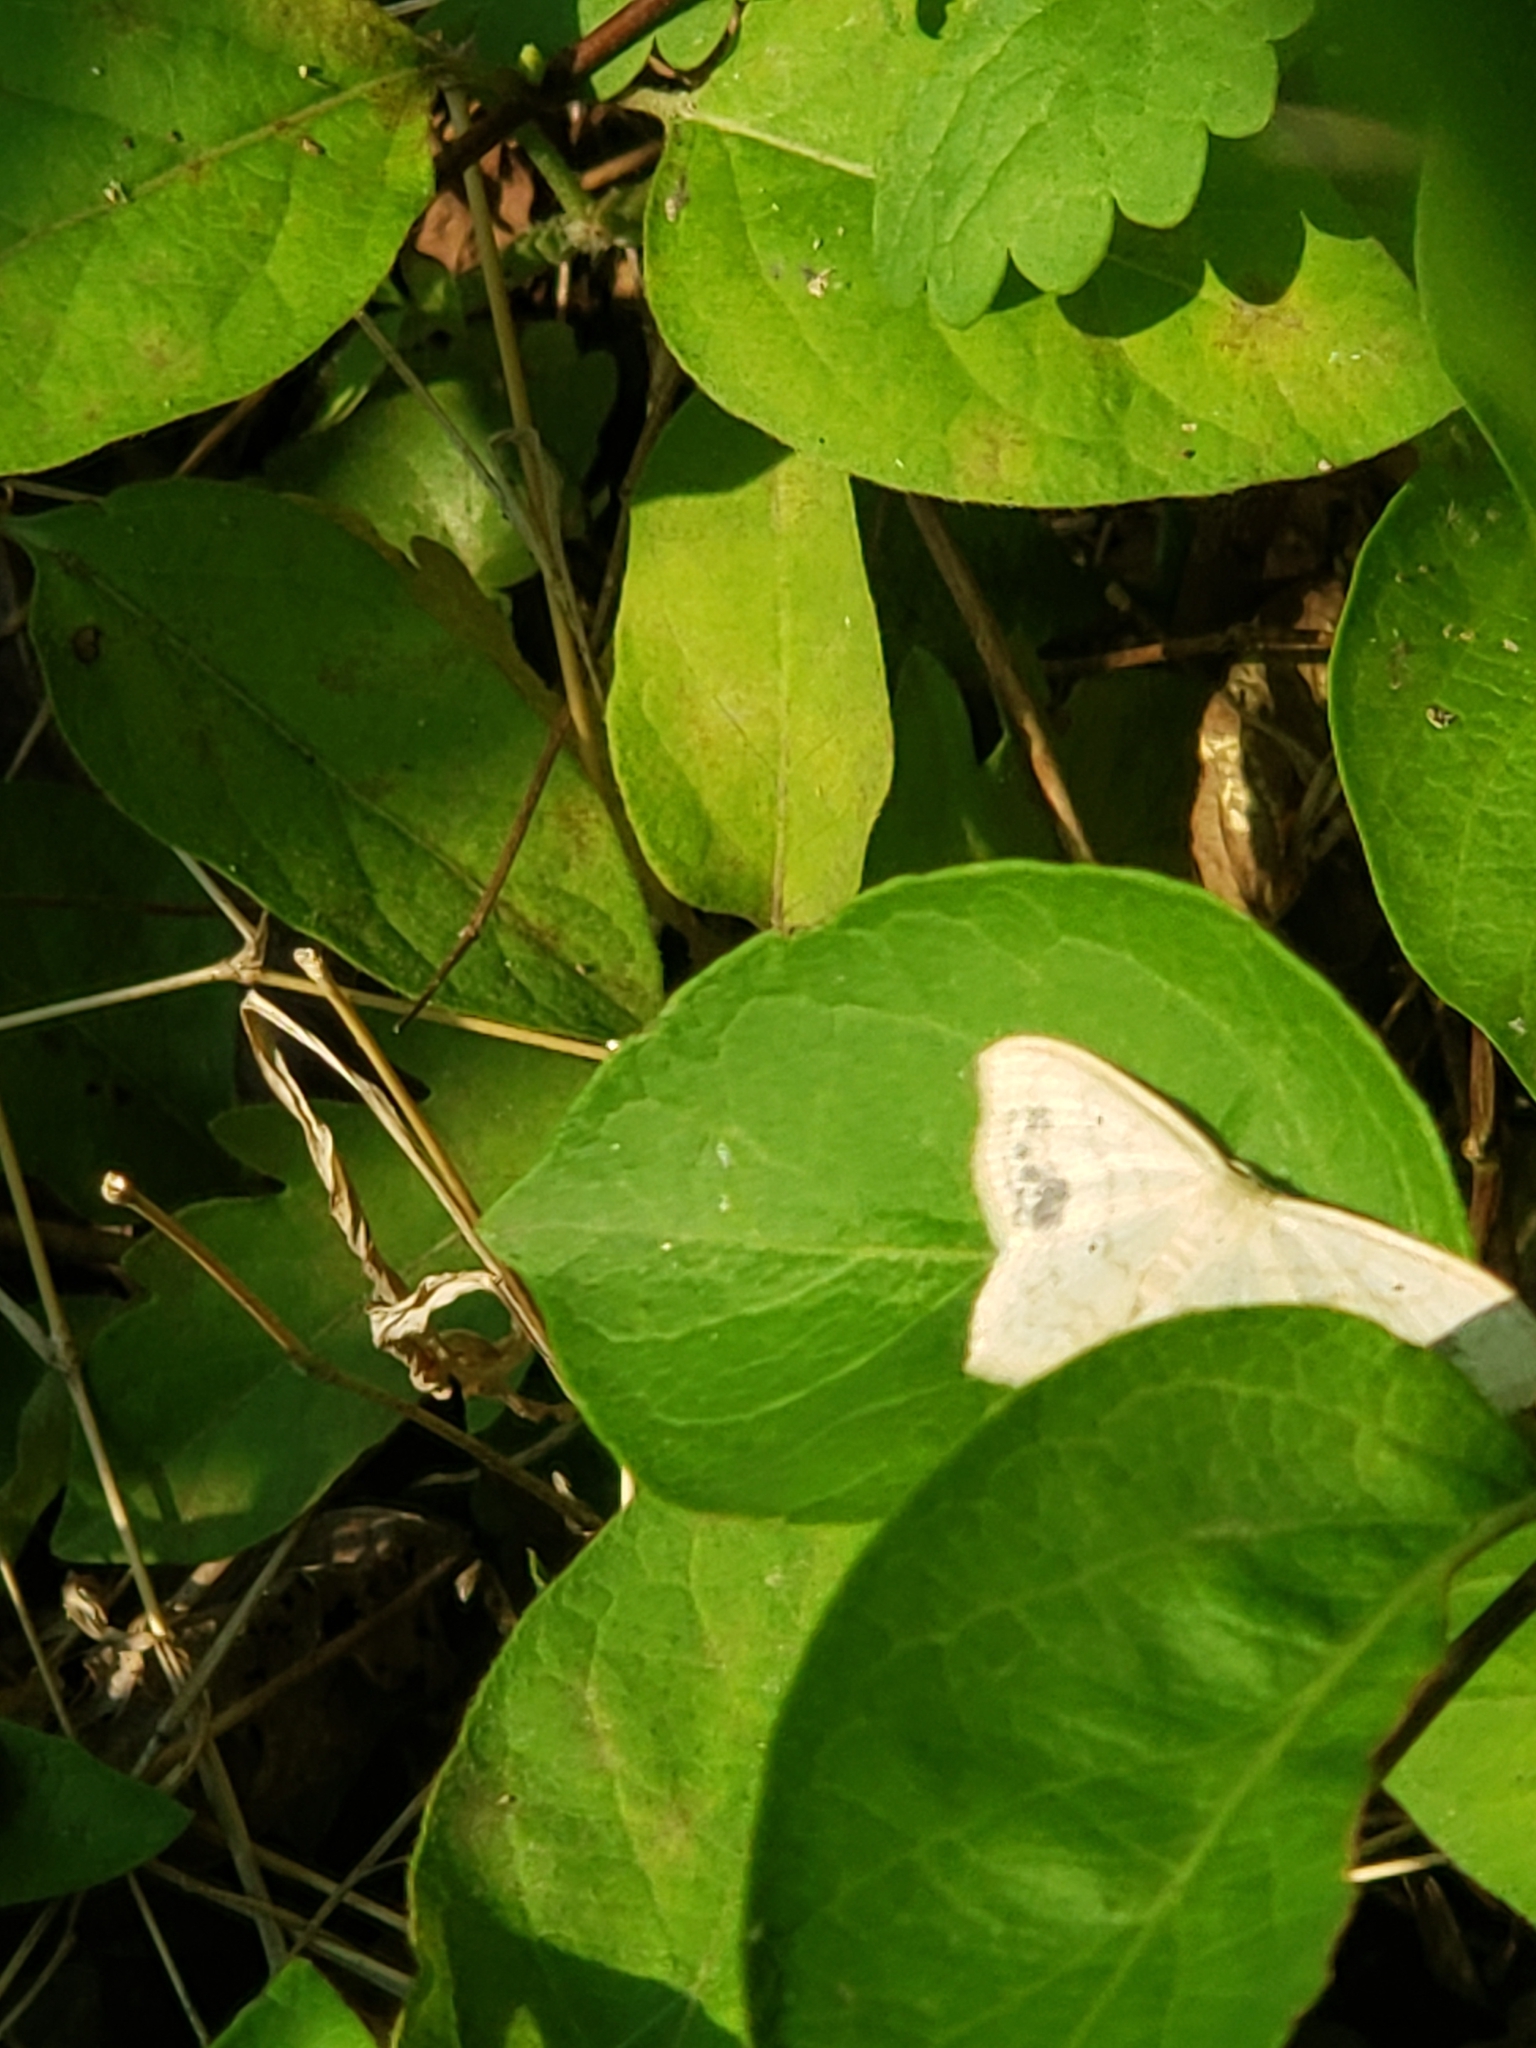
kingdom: Animalia
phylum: Arthropoda
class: Insecta
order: Lepidoptera
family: Geometridae
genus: Scopula
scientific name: Scopula limboundata
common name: Large lace border
